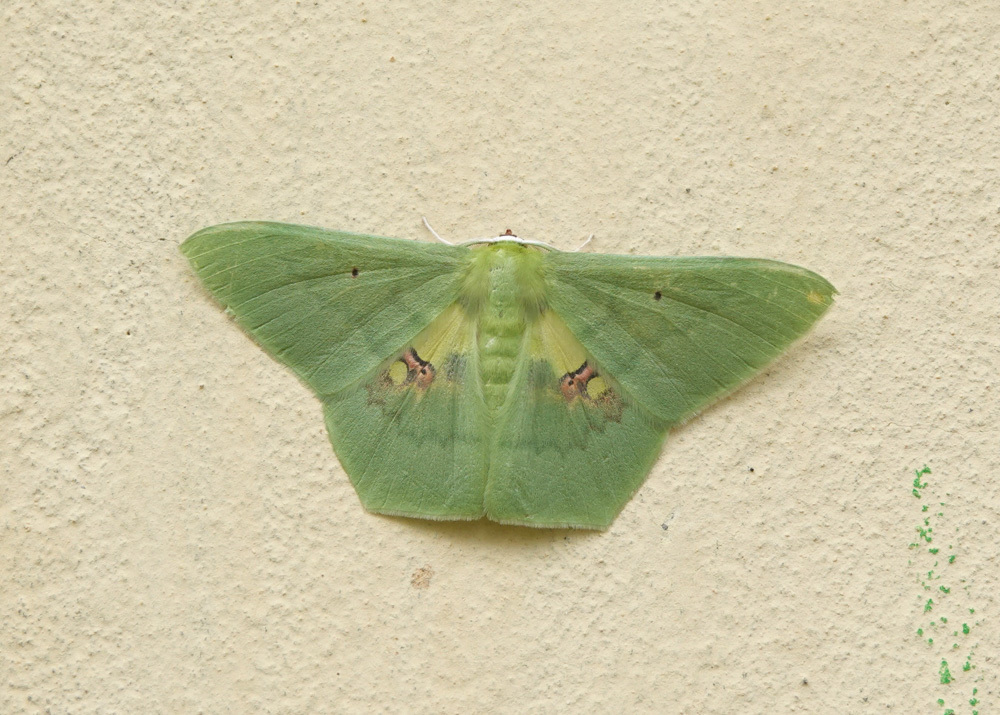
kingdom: Animalia
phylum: Arthropoda
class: Insecta
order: Lepidoptera
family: Geometridae
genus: Aporandria
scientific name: Aporandria specularia
